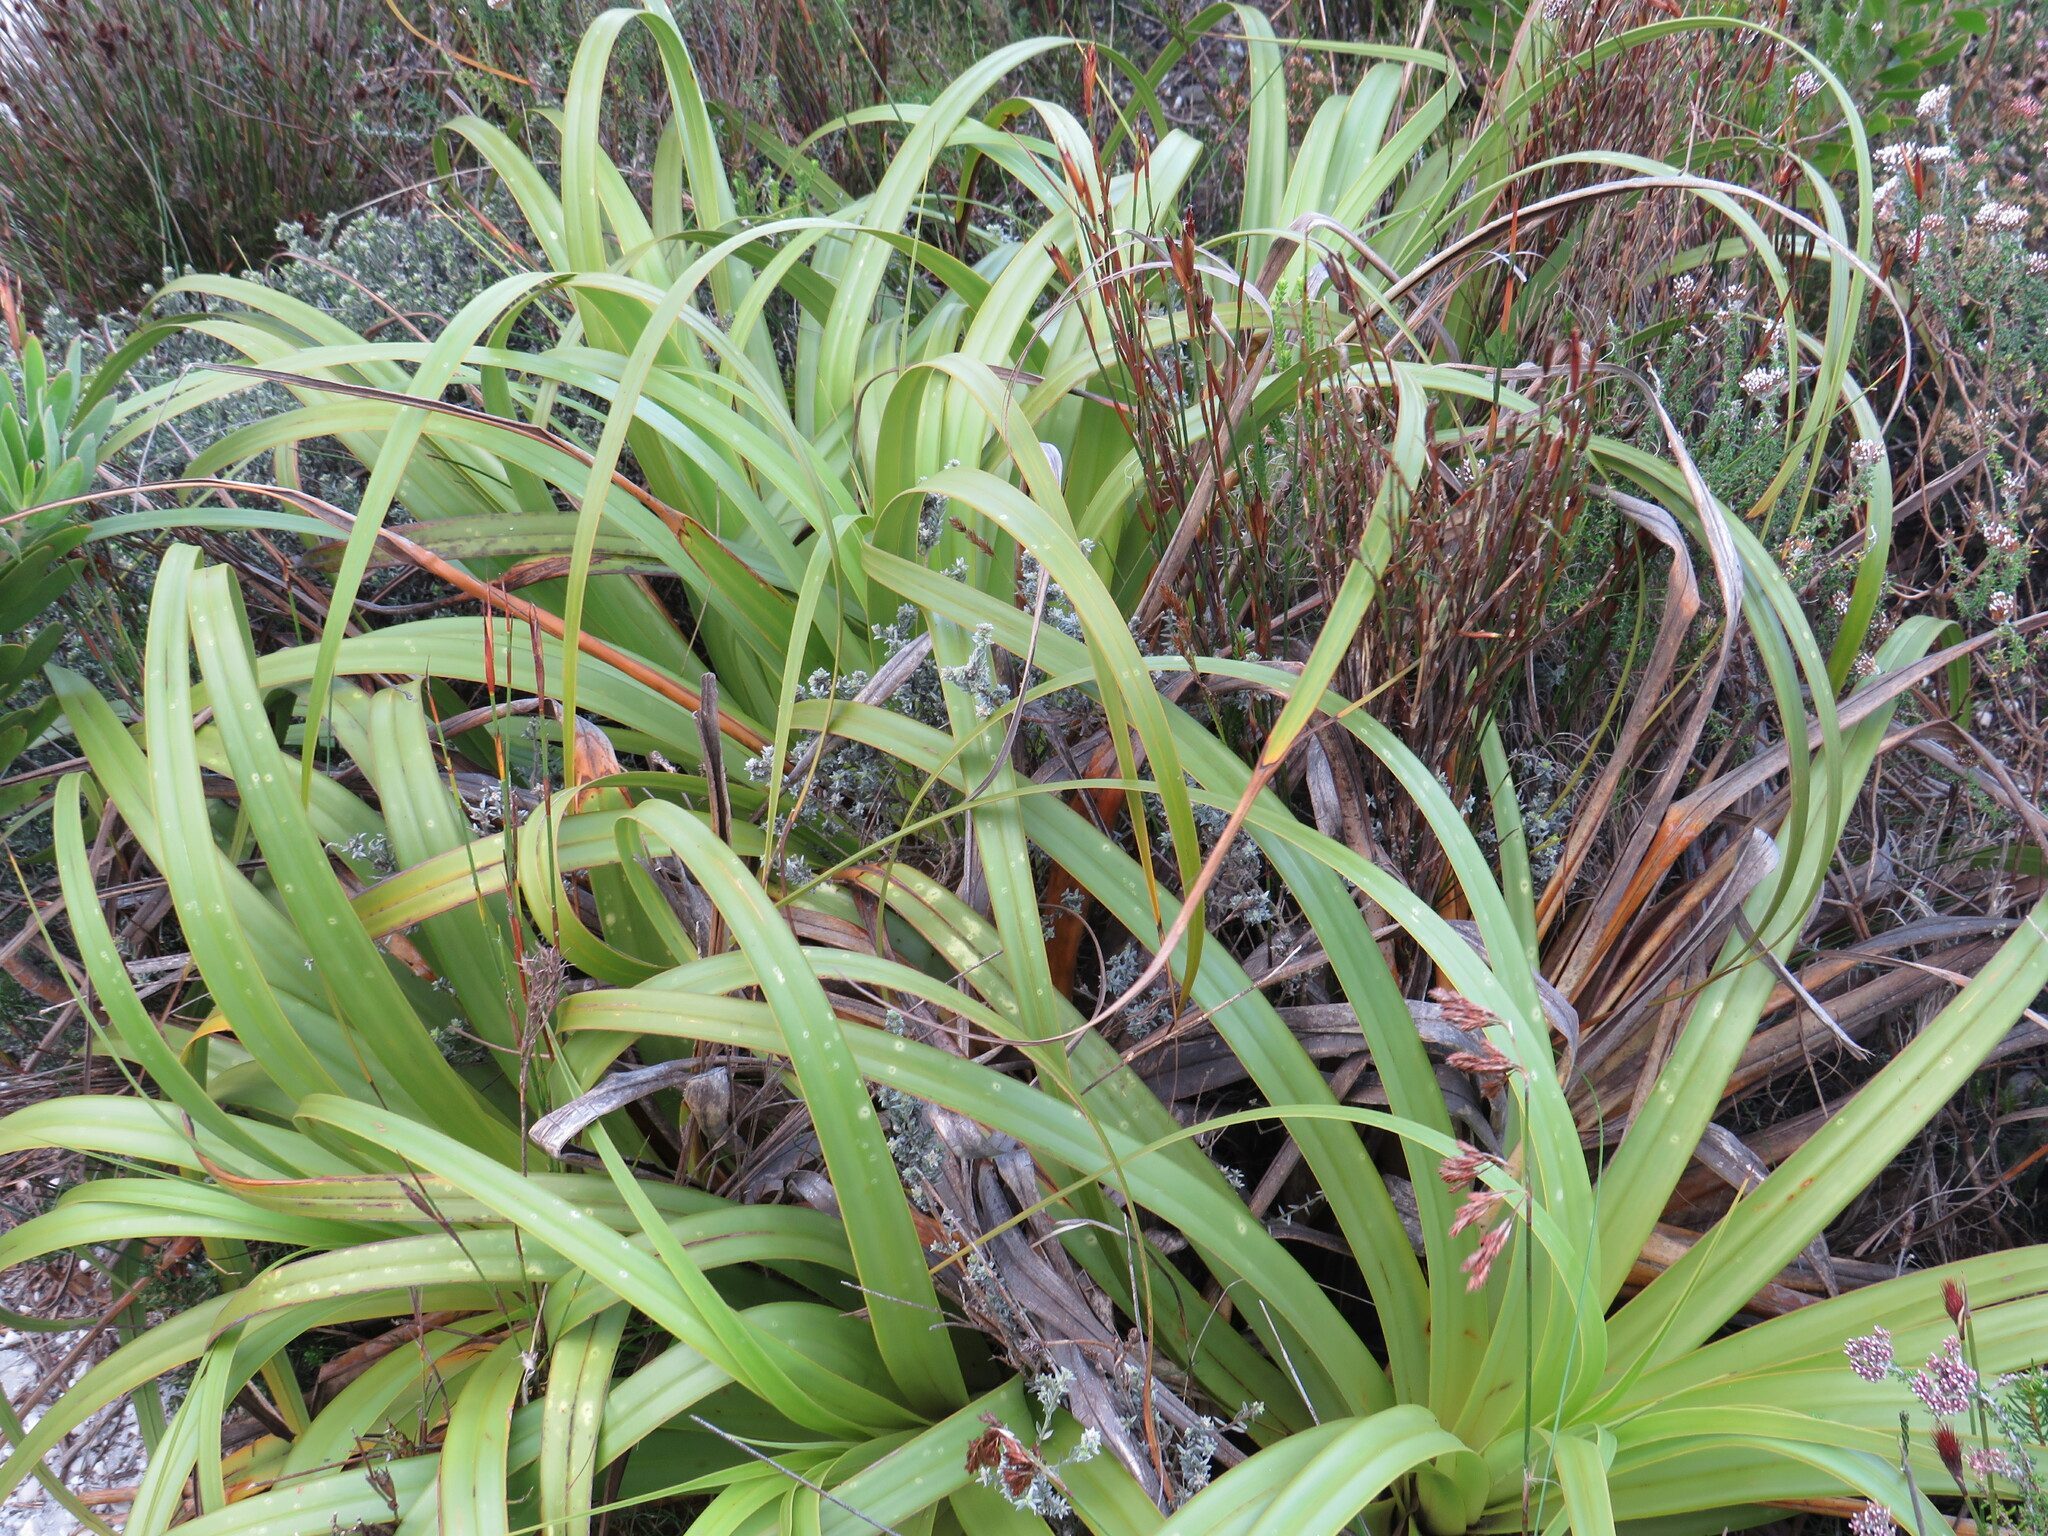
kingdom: Plantae
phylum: Tracheophyta
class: Liliopsida
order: Poales
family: Cyperaceae
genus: Tetraria
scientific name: Tetraria thermalis
